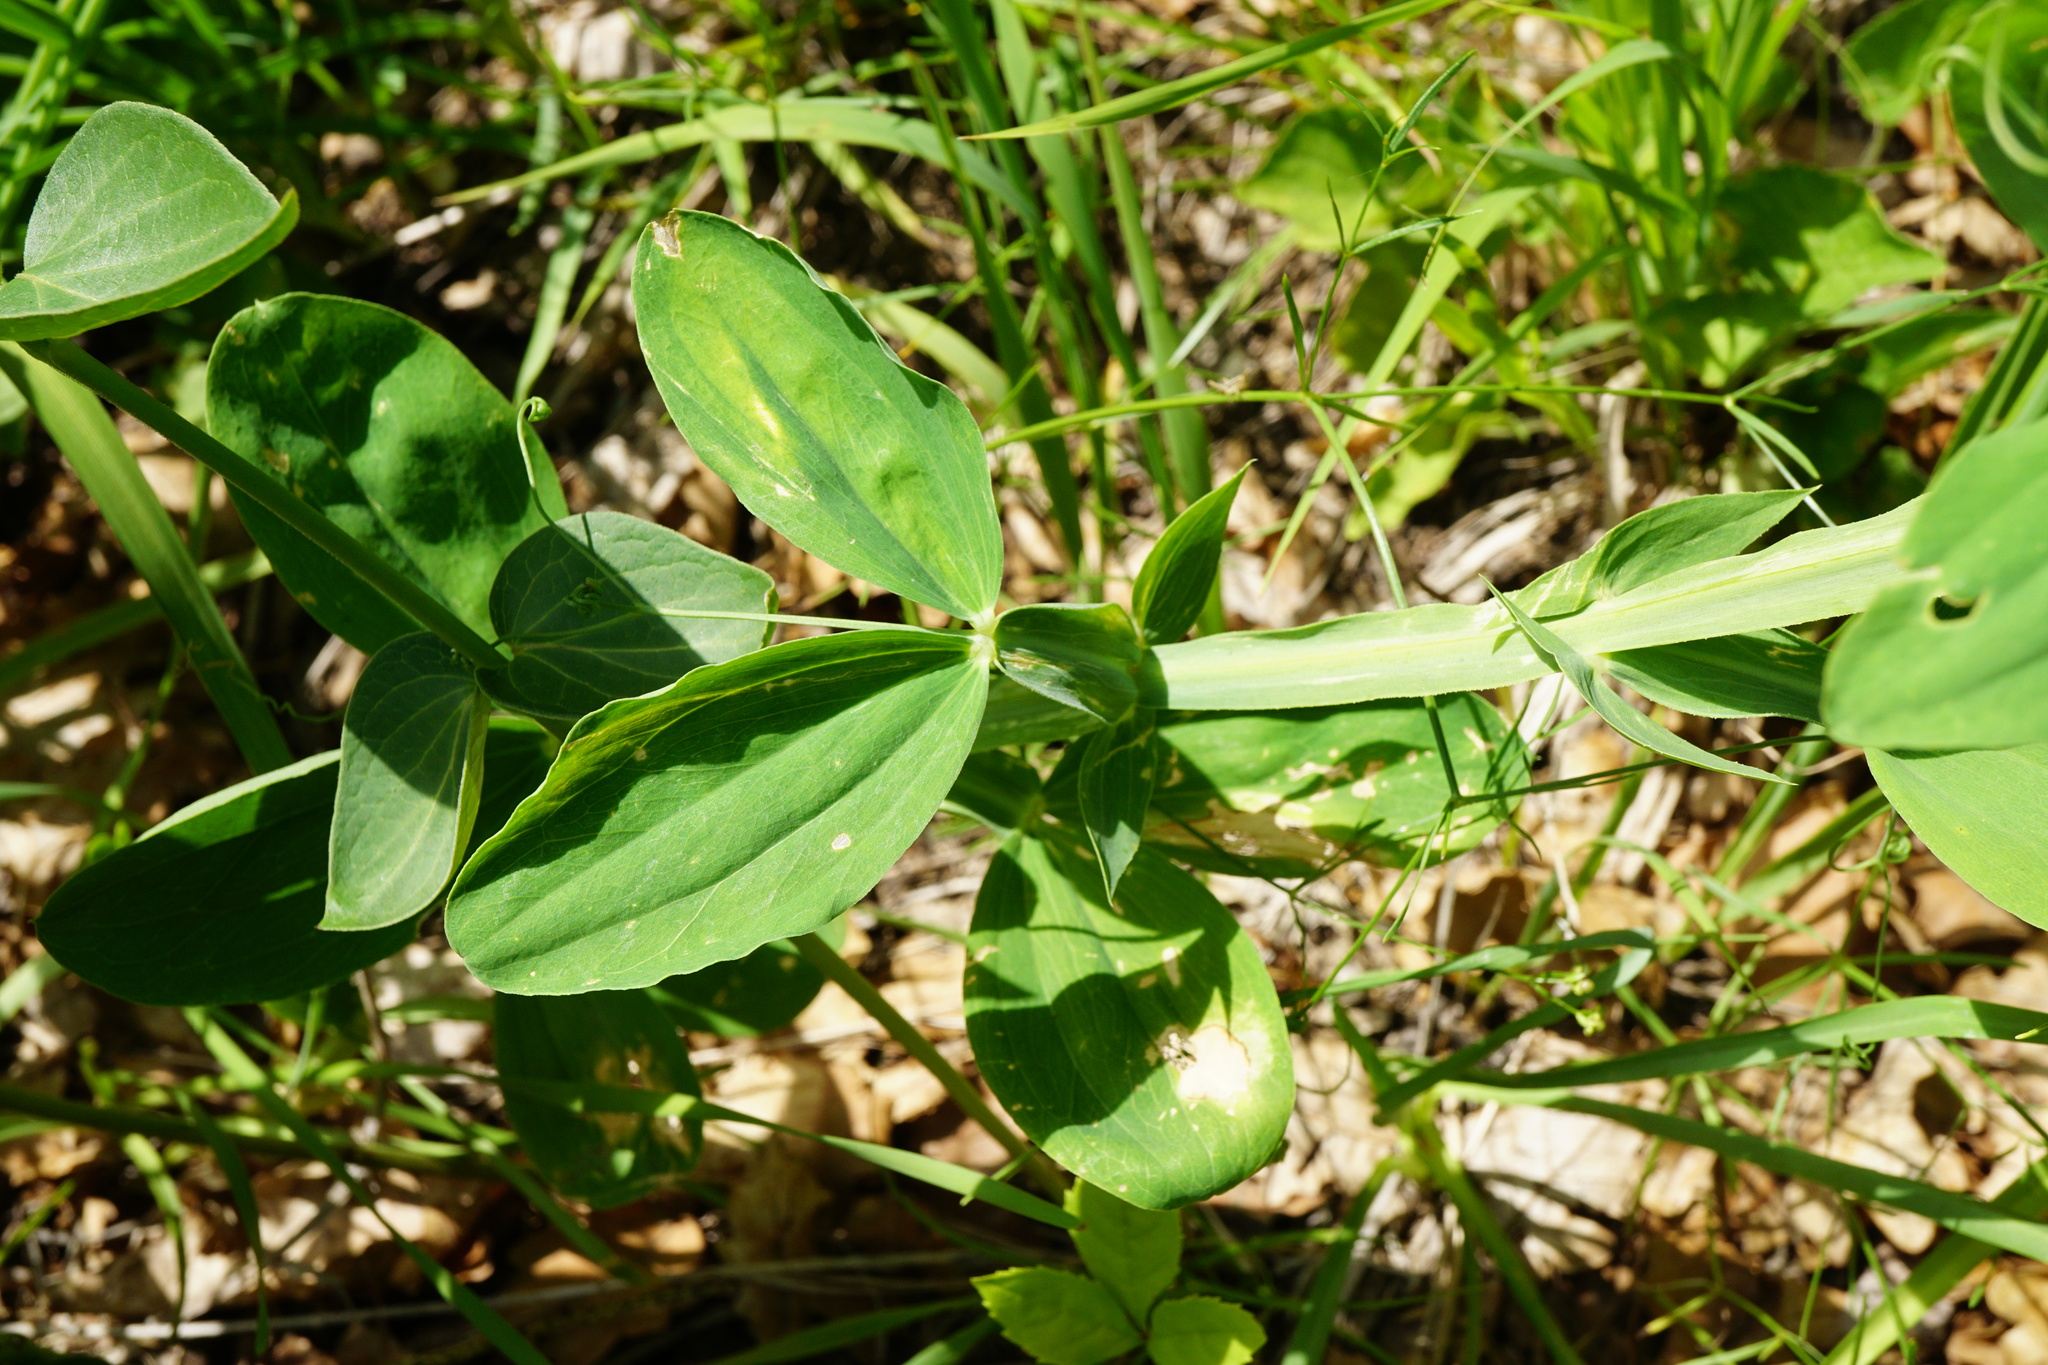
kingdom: Plantae
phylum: Tracheophyta
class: Magnoliopsida
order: Fabales
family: Fabaceae
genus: Lathyrus
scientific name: Lathyrus latifolius
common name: Perennial pea
